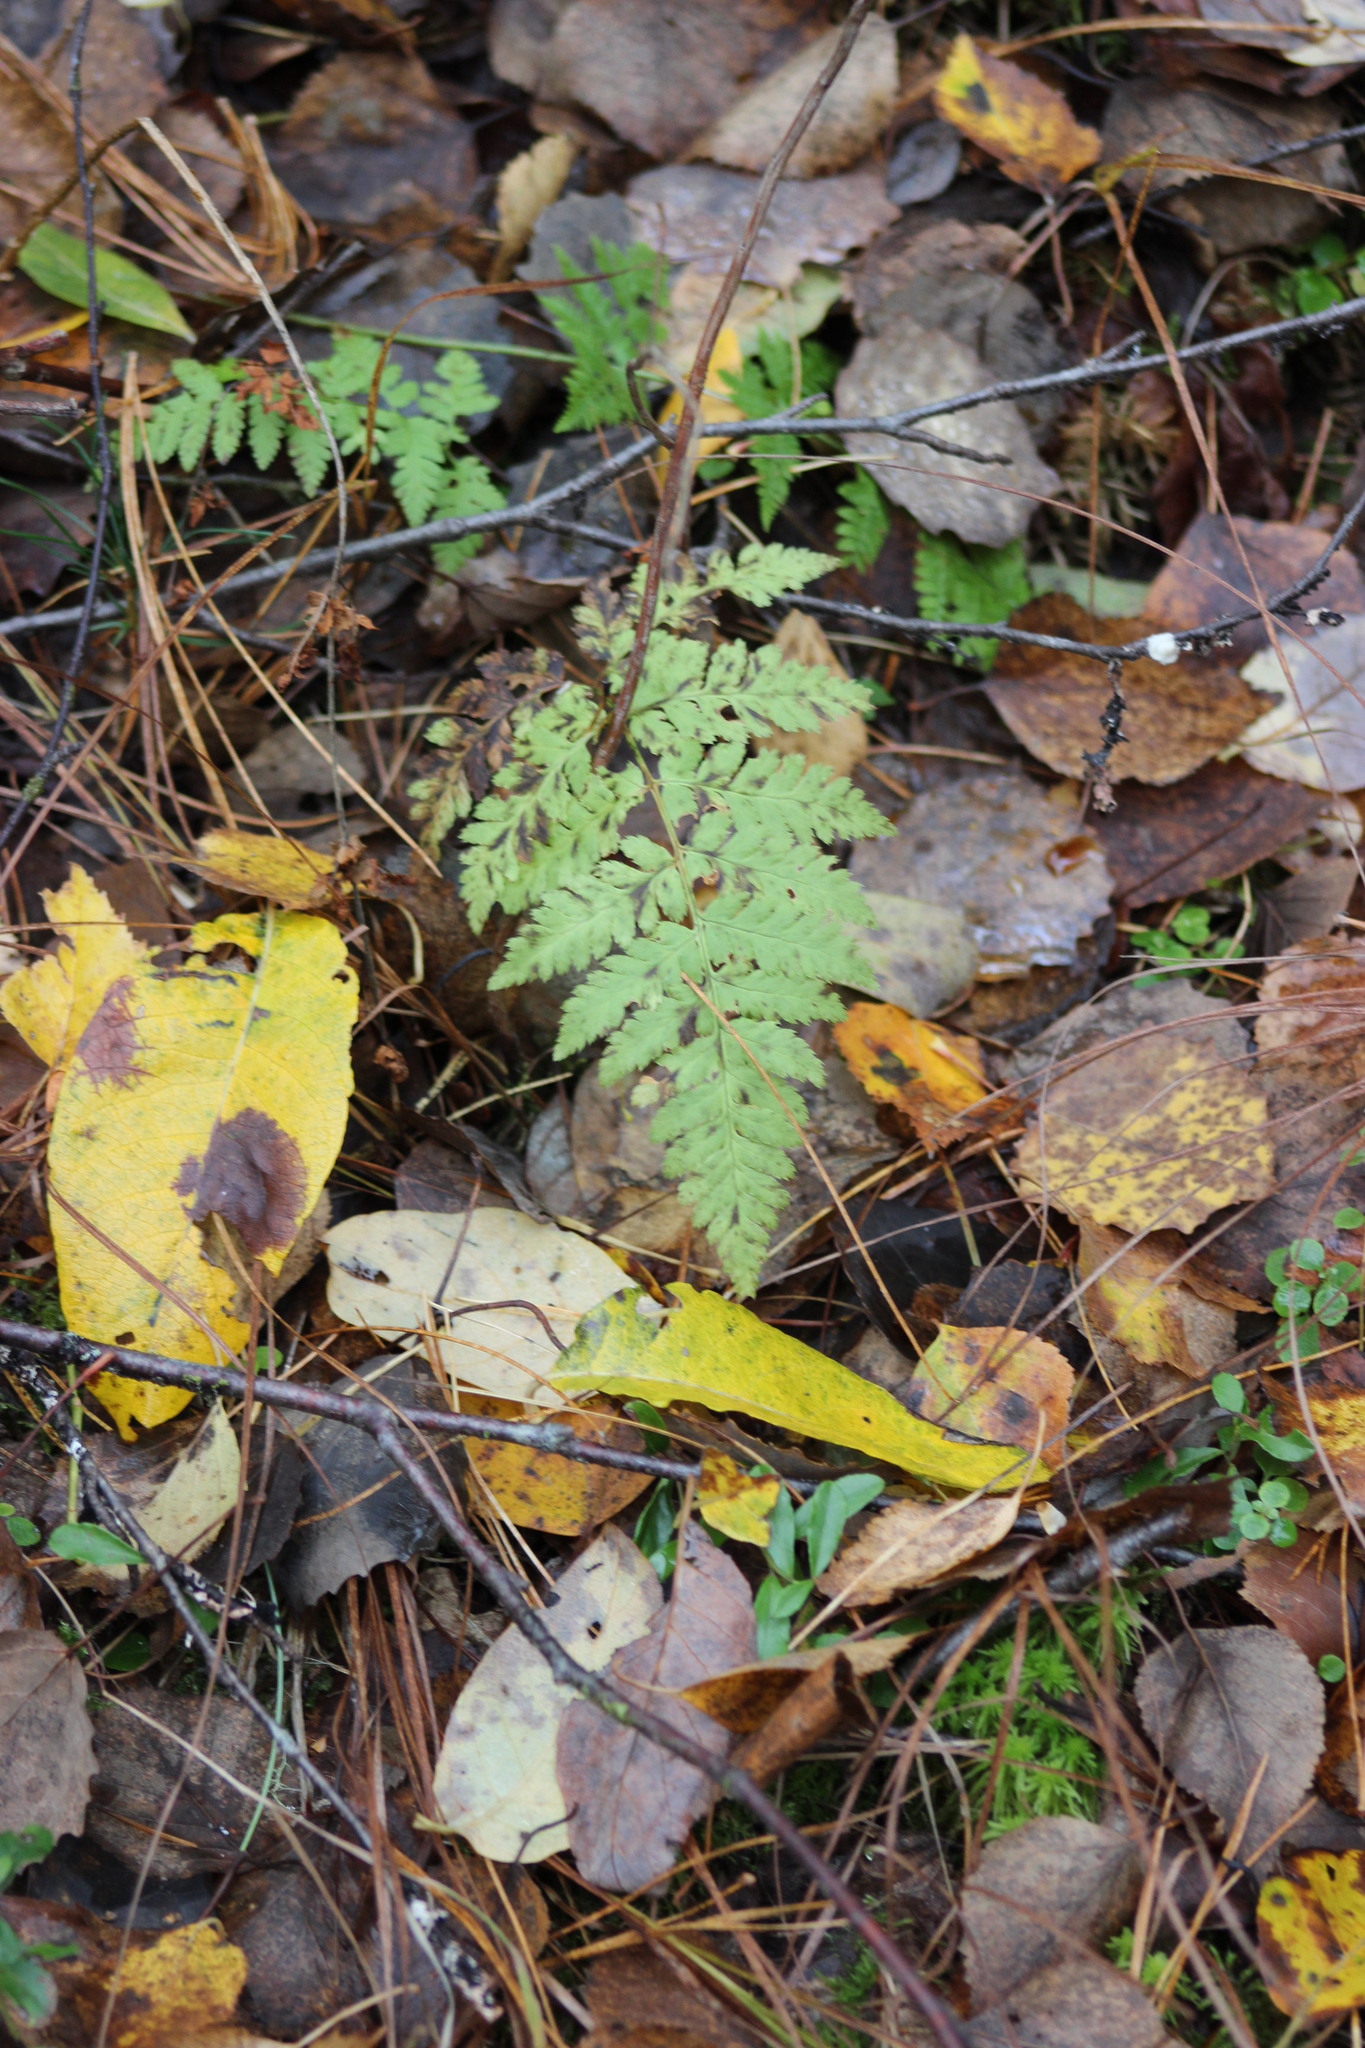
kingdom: Plantae
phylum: Tracheophyta
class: Polypodiopsida
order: Polypodiales
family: Dryopteridaceae
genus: Dryopteris
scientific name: Dryopteris carthusiana
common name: Narrow buckler-fern
